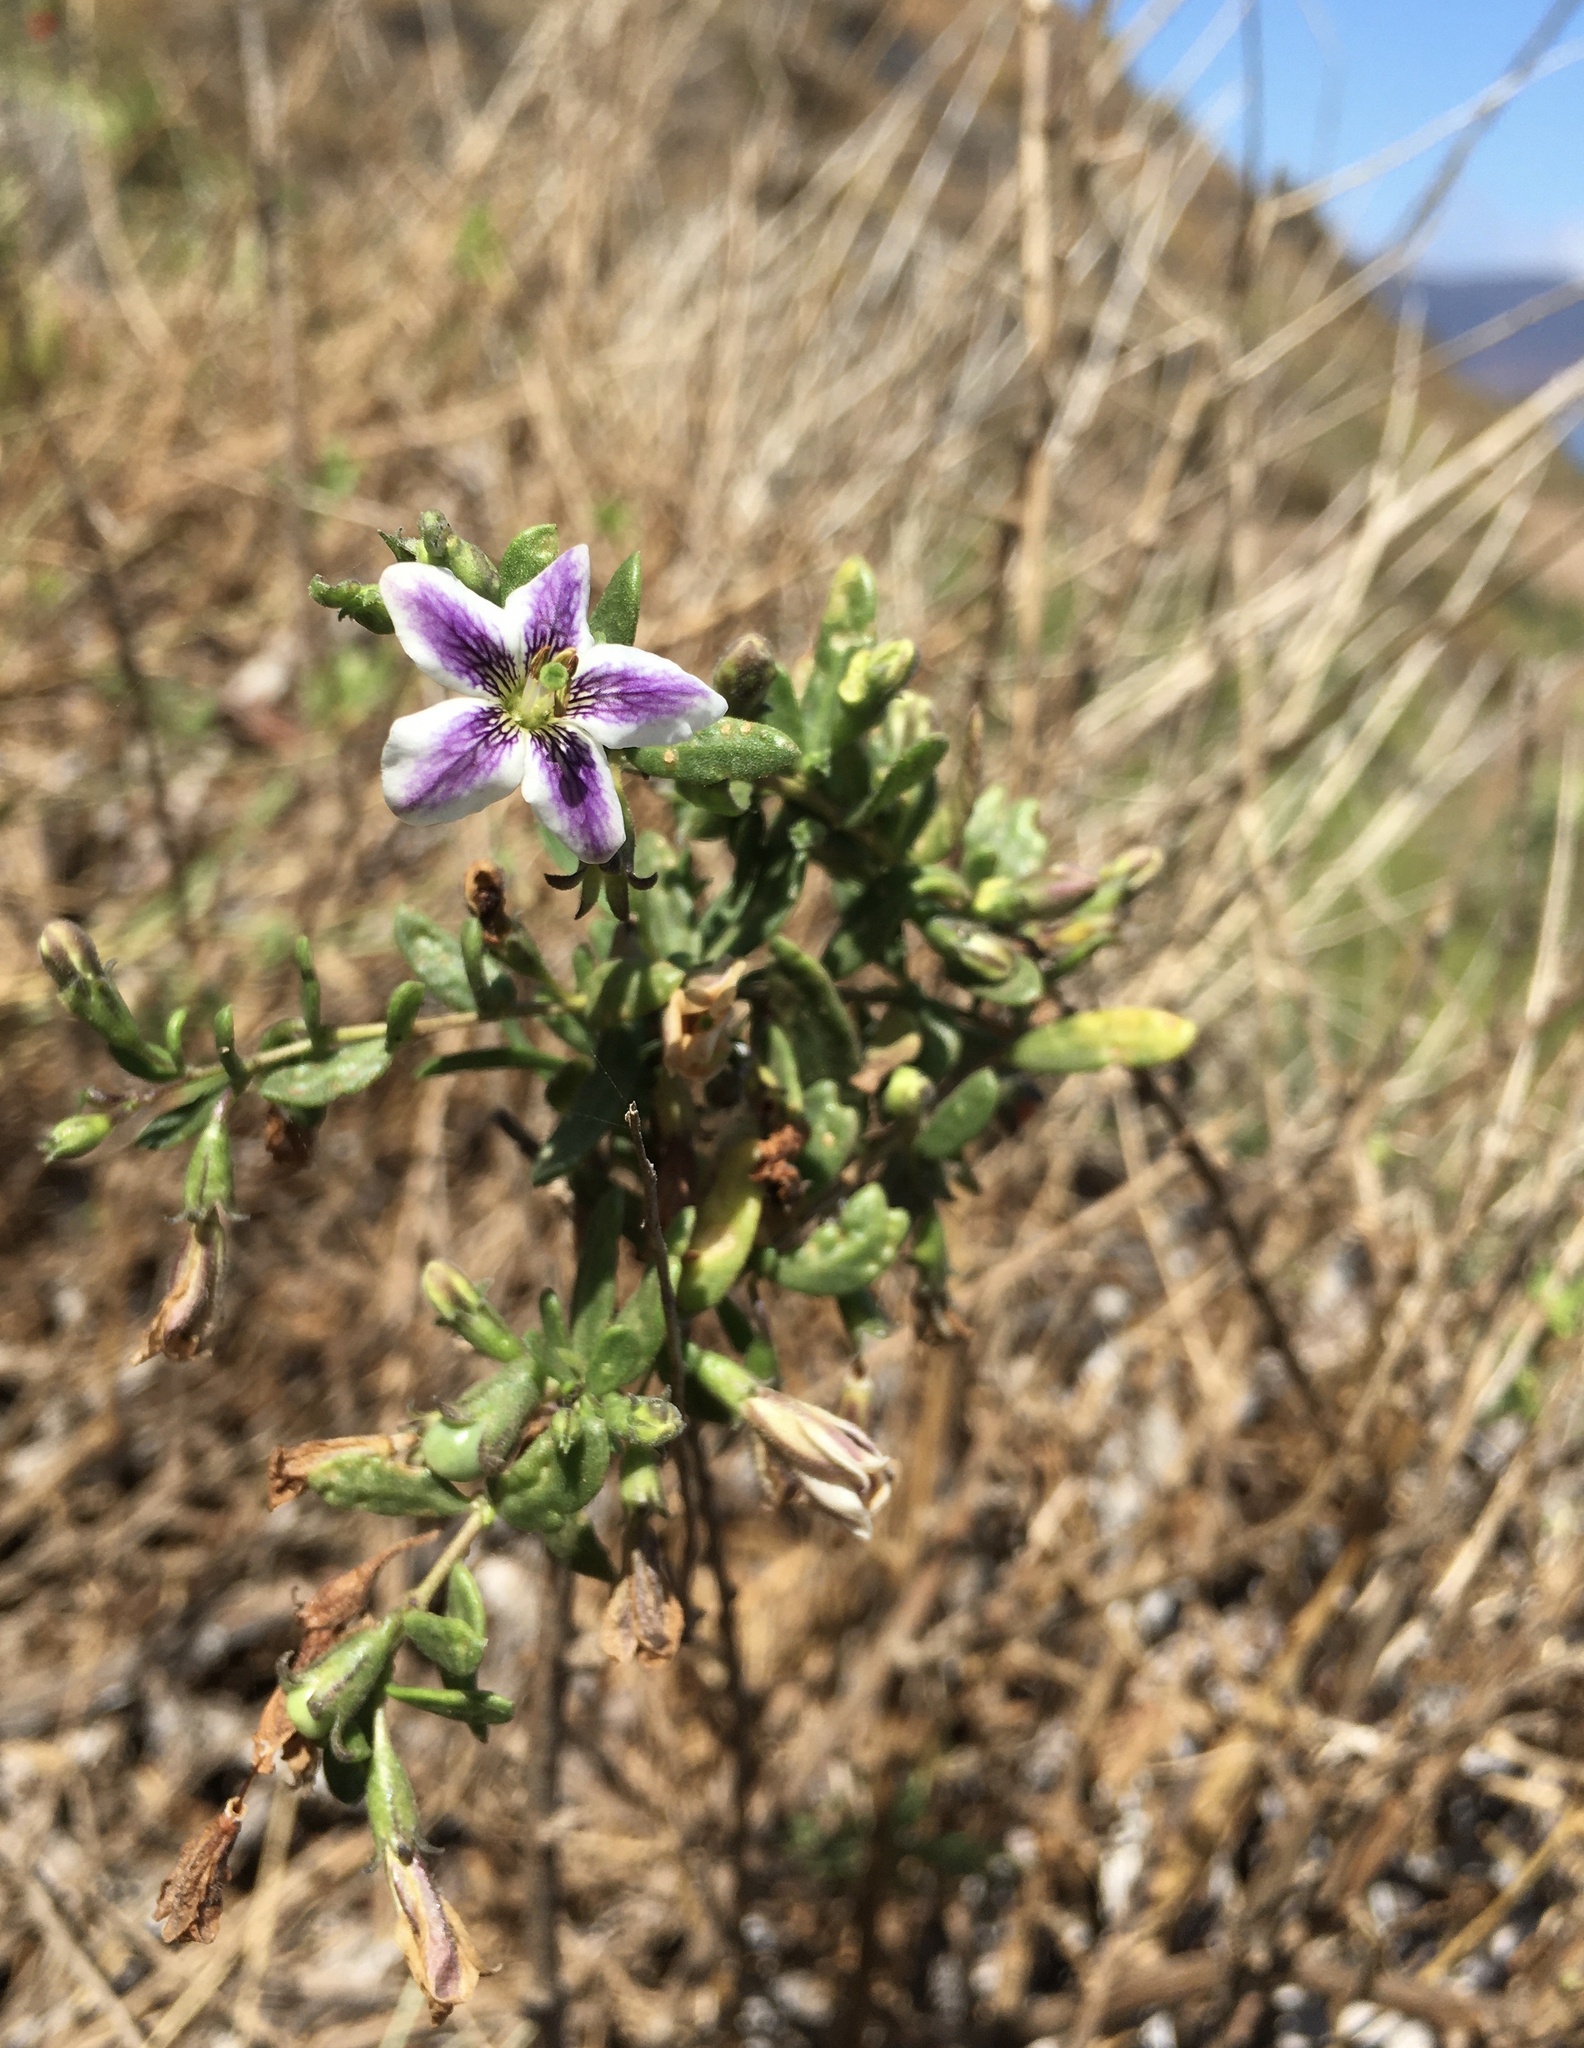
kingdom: Plantae
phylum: Tracheophyta
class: Magnoliopsida
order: Solanales
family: Solanaceae
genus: Lycium
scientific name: Lycium chilense
